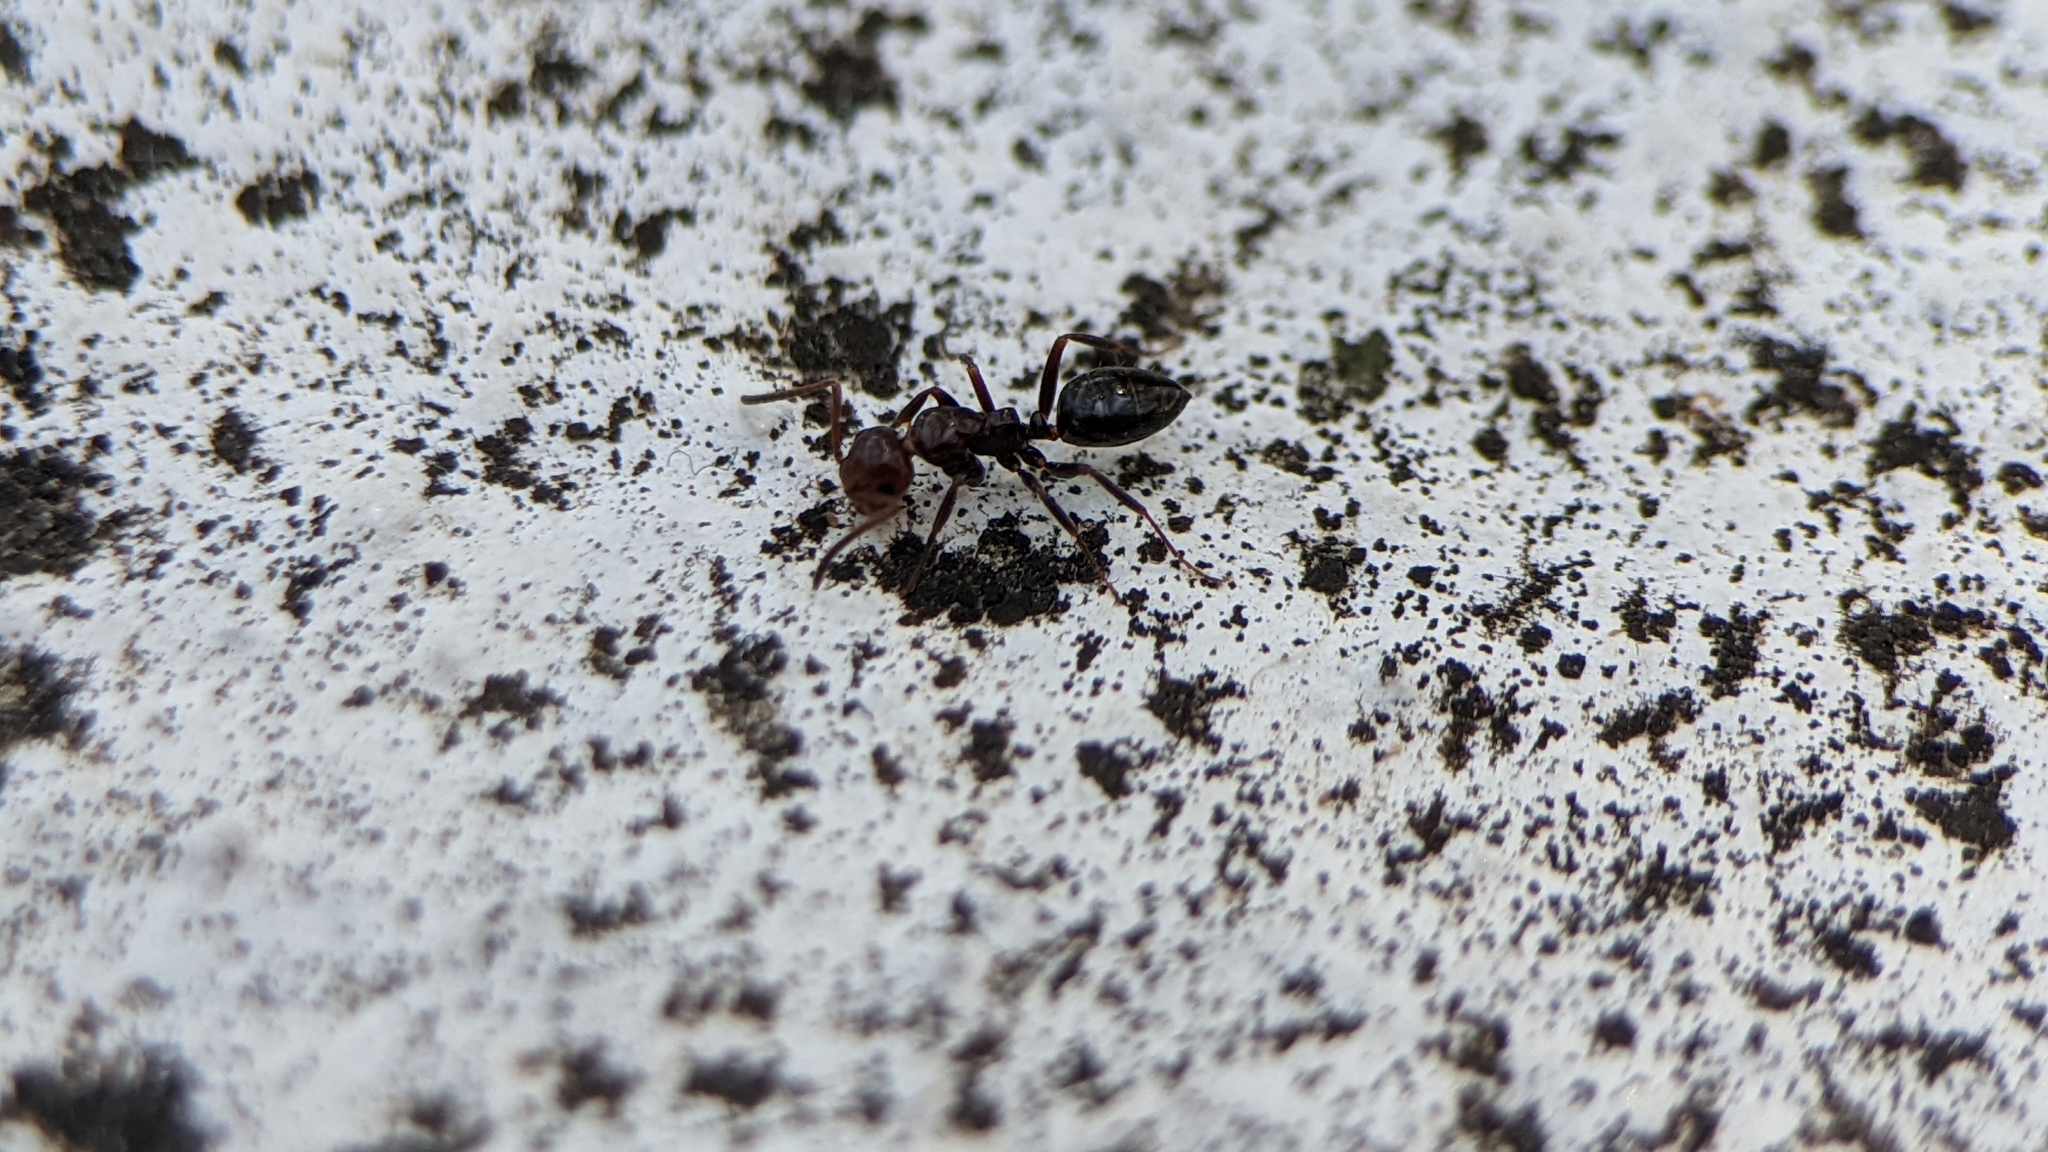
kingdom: Animalia
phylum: Arthropoda
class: Insecta
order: Hymenoptera
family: Formicidae
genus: Camponotus
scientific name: Camponotus lateralis
